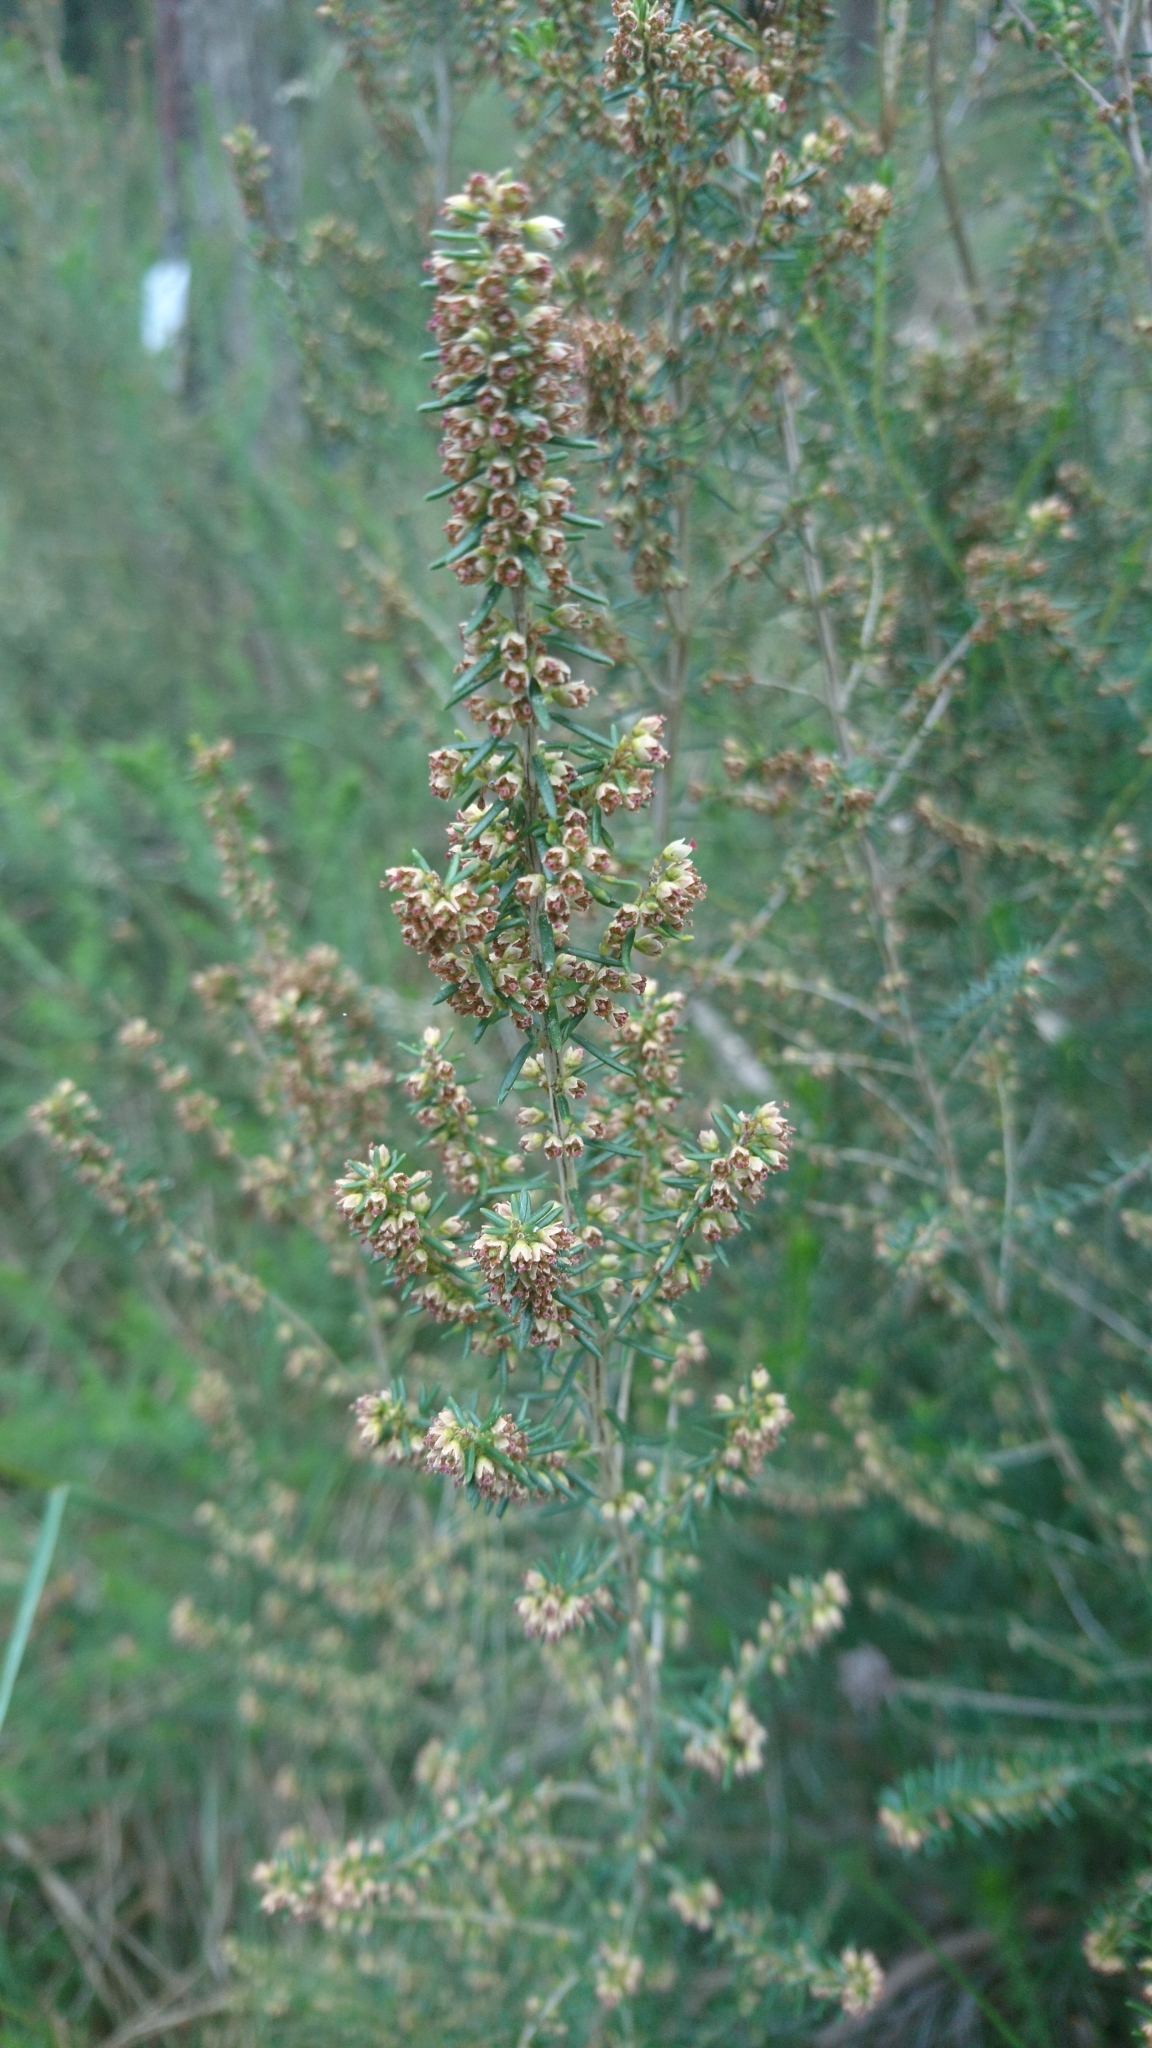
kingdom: Plantae
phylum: Tracheophyta
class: Magnoliopsida
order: Ericales
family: Ericaceae
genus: Erica
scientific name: Erica scoparia
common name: Green heather
